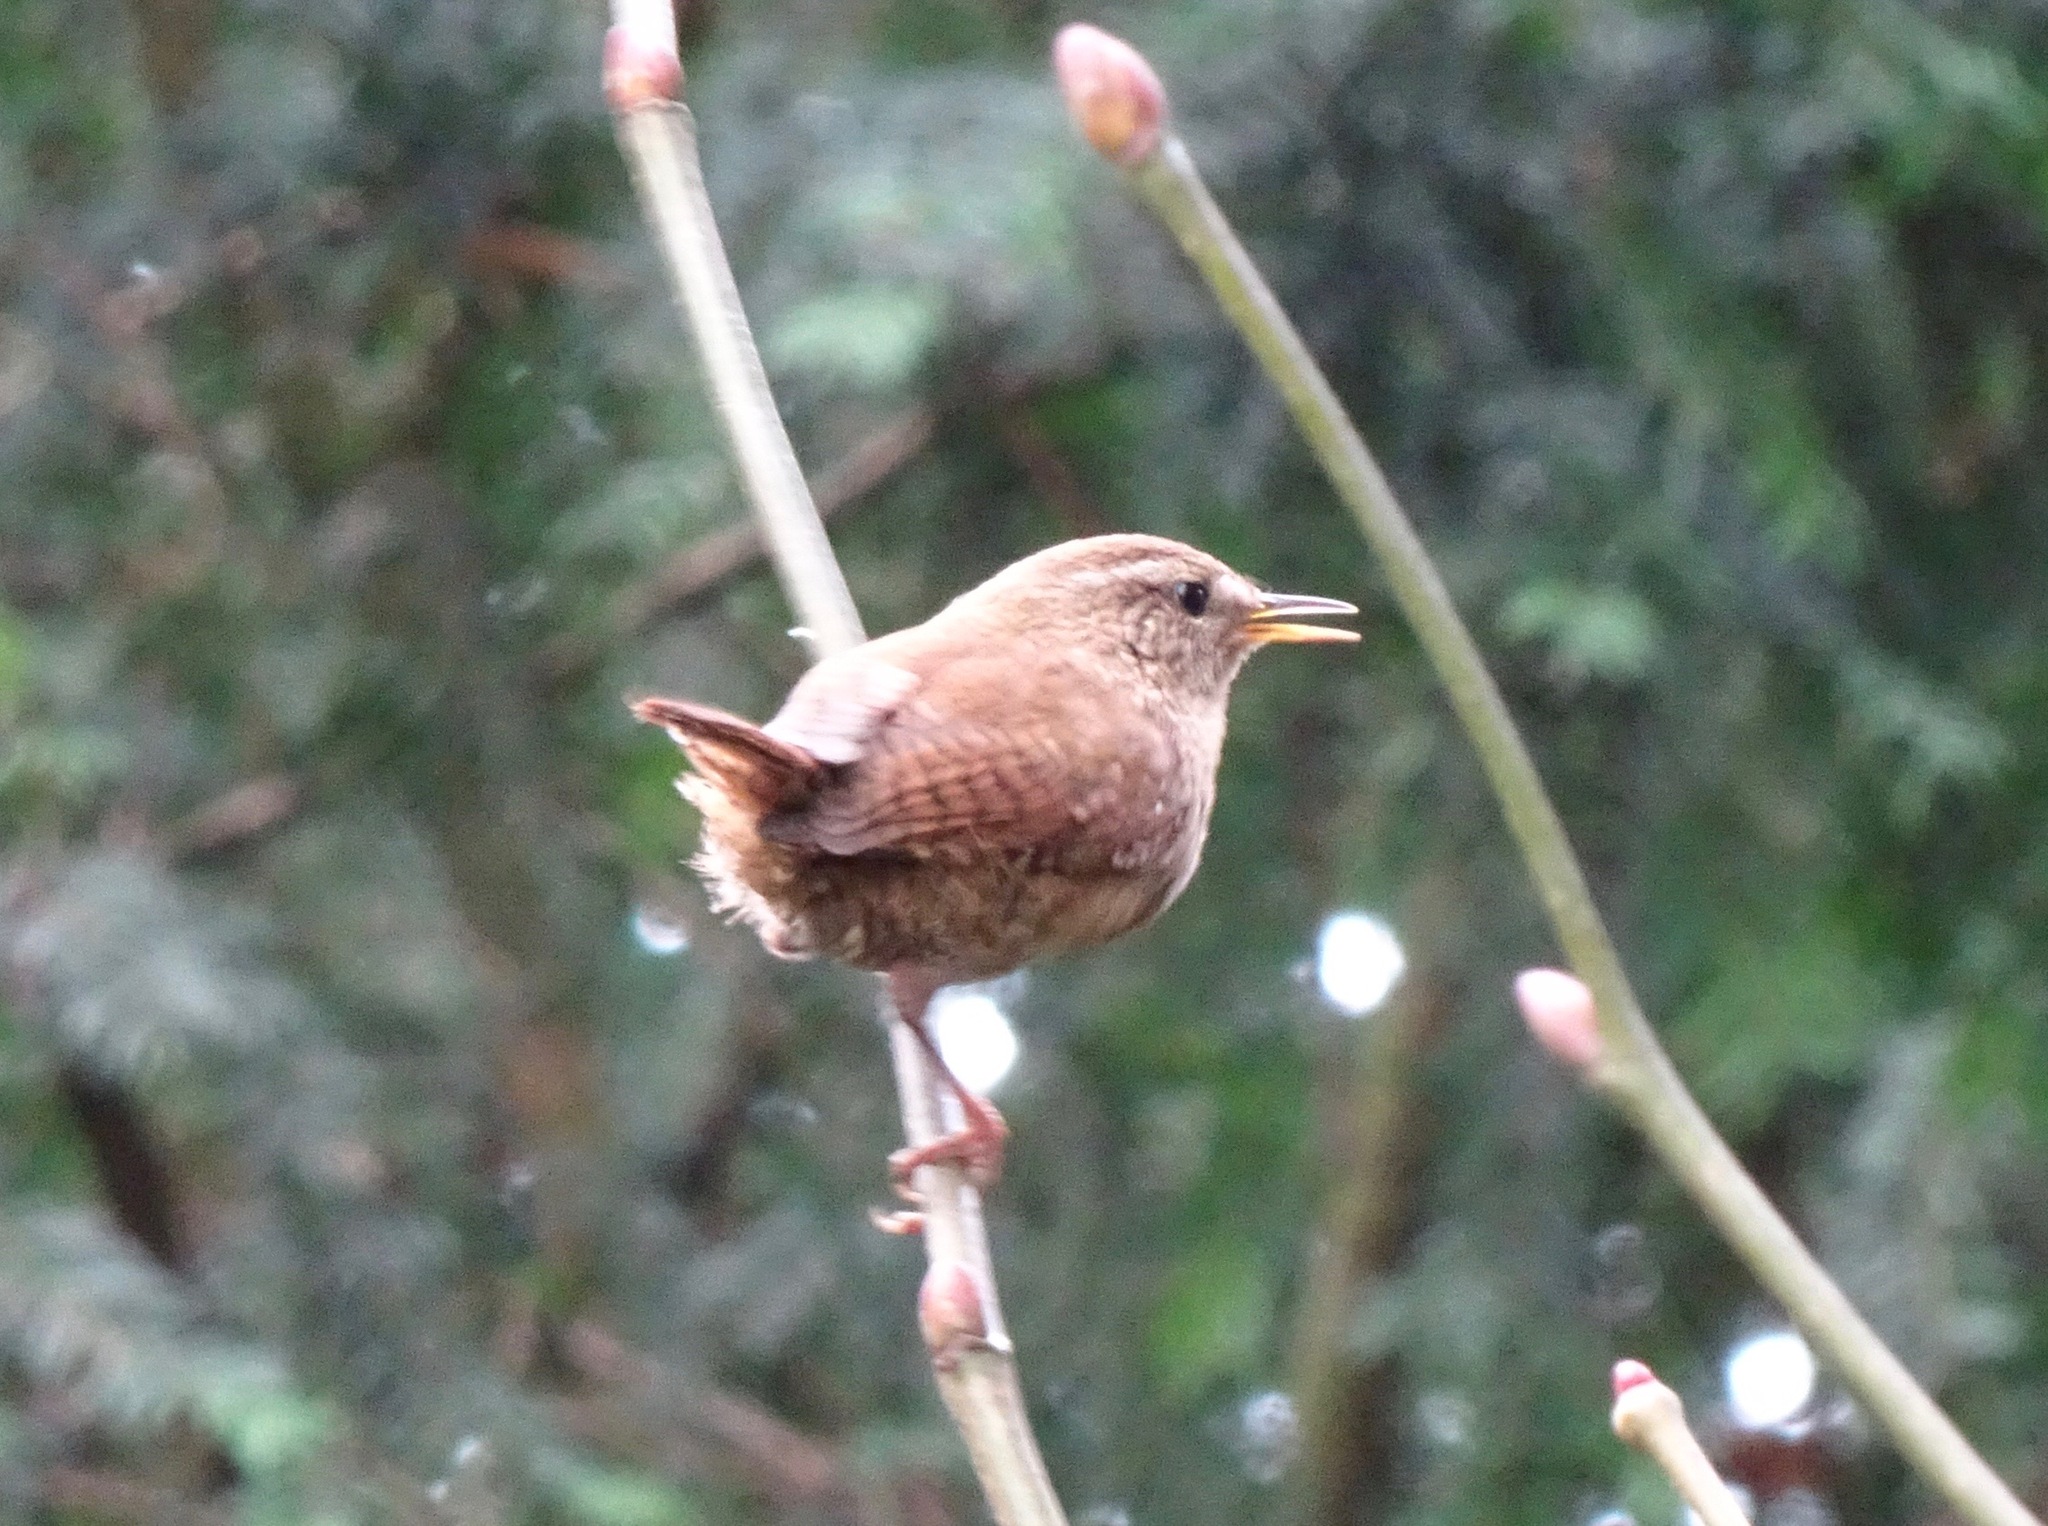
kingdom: Animalia
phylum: Chordata
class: Aves
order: Passeriformes
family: Troglodytidae
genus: Troglodytes
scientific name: Troglodytes troglodytes
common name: Eurasian wren
